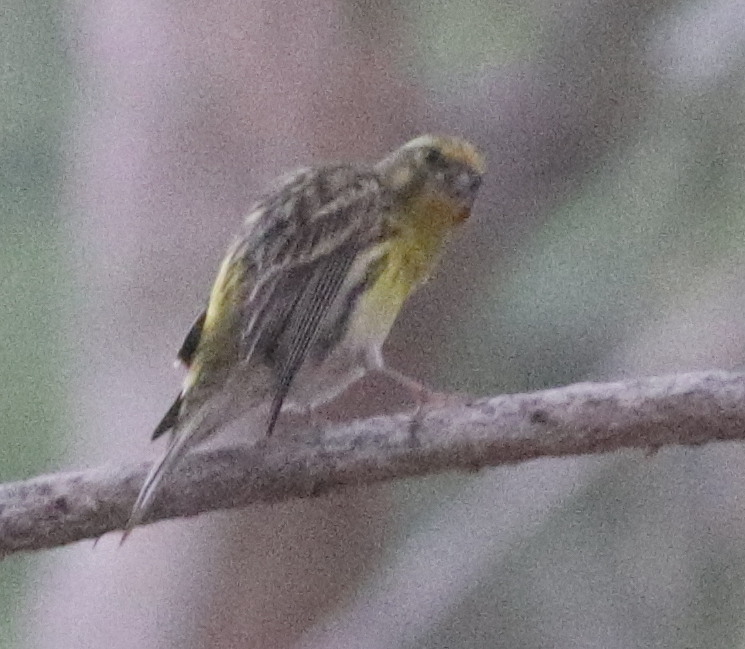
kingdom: Animalia
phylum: Chordata
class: Aves
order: Passeriformes
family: Fringillidae
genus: Serinus
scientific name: Serinus serinus
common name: European serin
